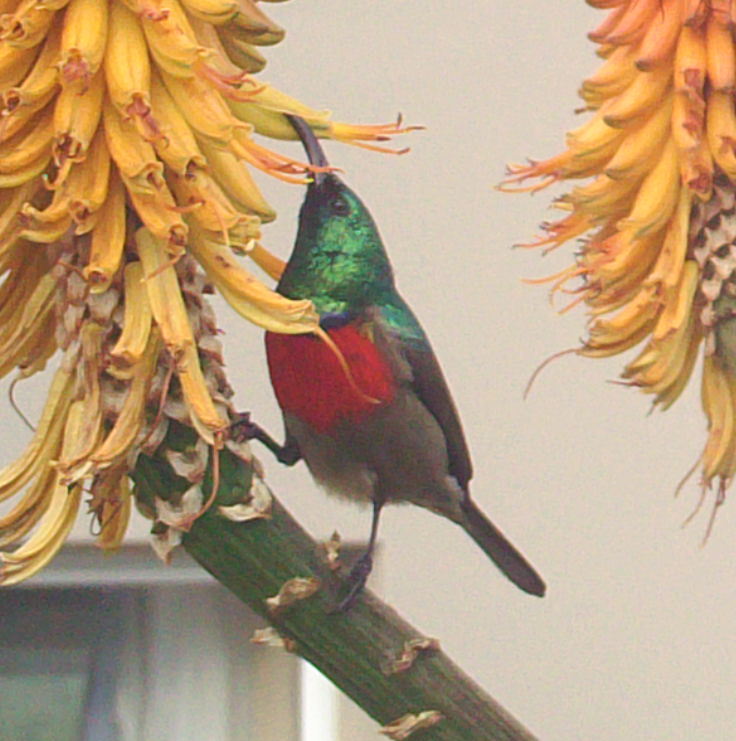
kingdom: Animalia
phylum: Chordata
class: Aves
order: Passeriformes
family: Nectariniidae
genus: Cinnyris
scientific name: Cinnyris afer
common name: Greater double-collared sunbird
